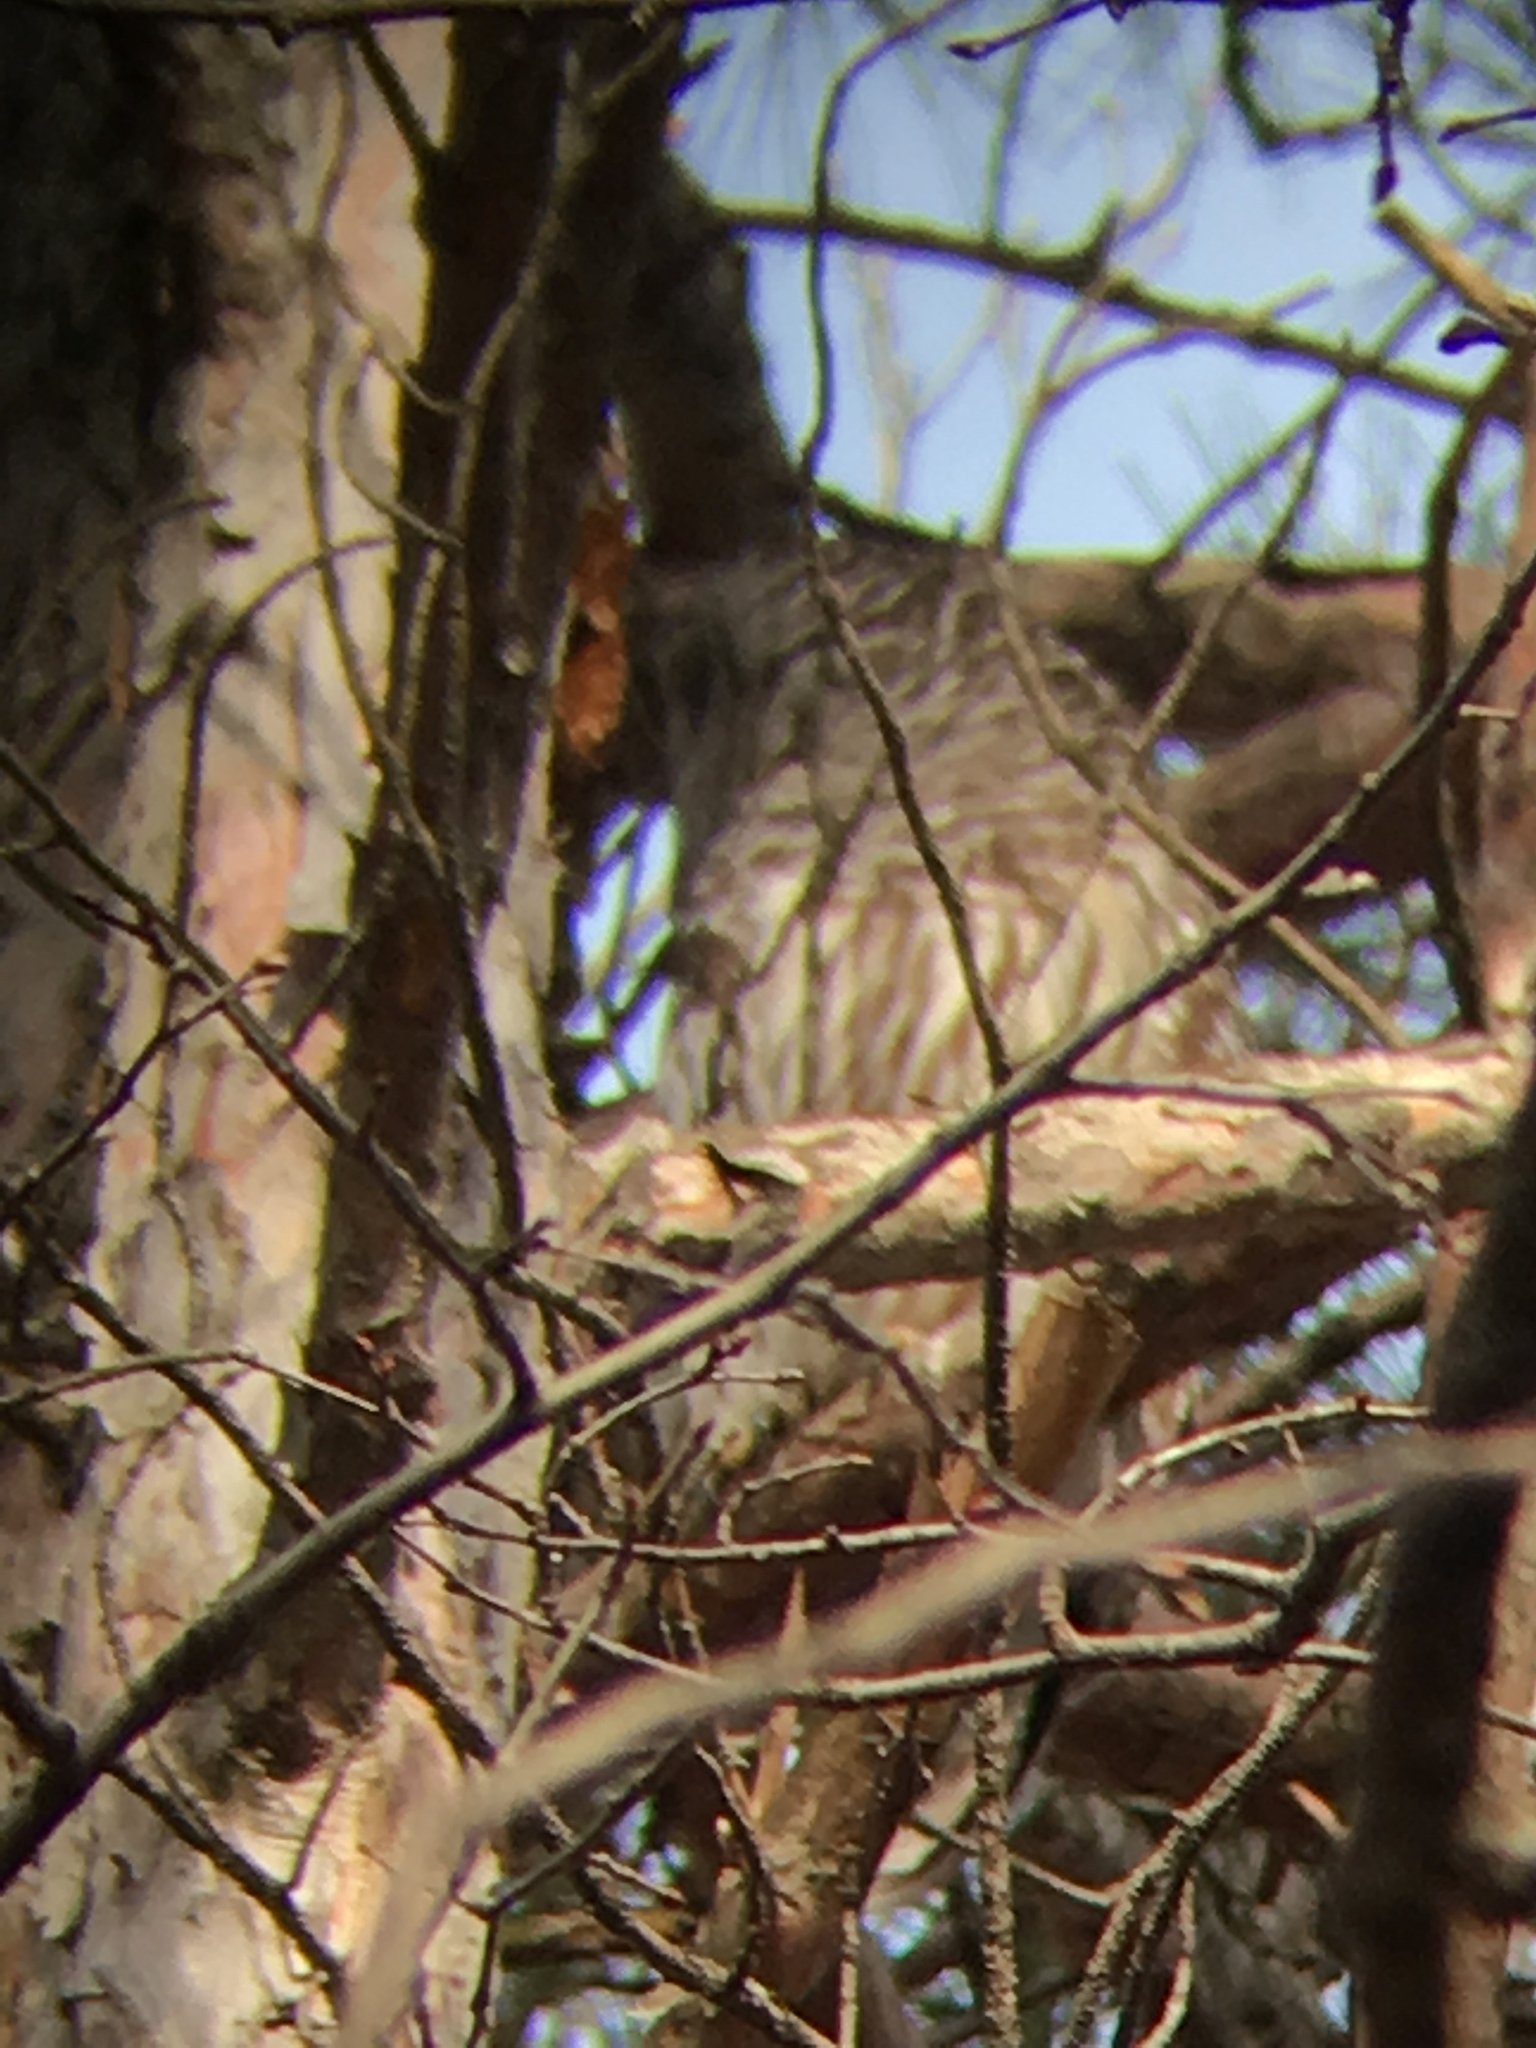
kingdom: Animalia
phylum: Chordata
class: Aves
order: Strigiformes
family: Strigidae
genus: Strix
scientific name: Strix varia
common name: Barred owl
